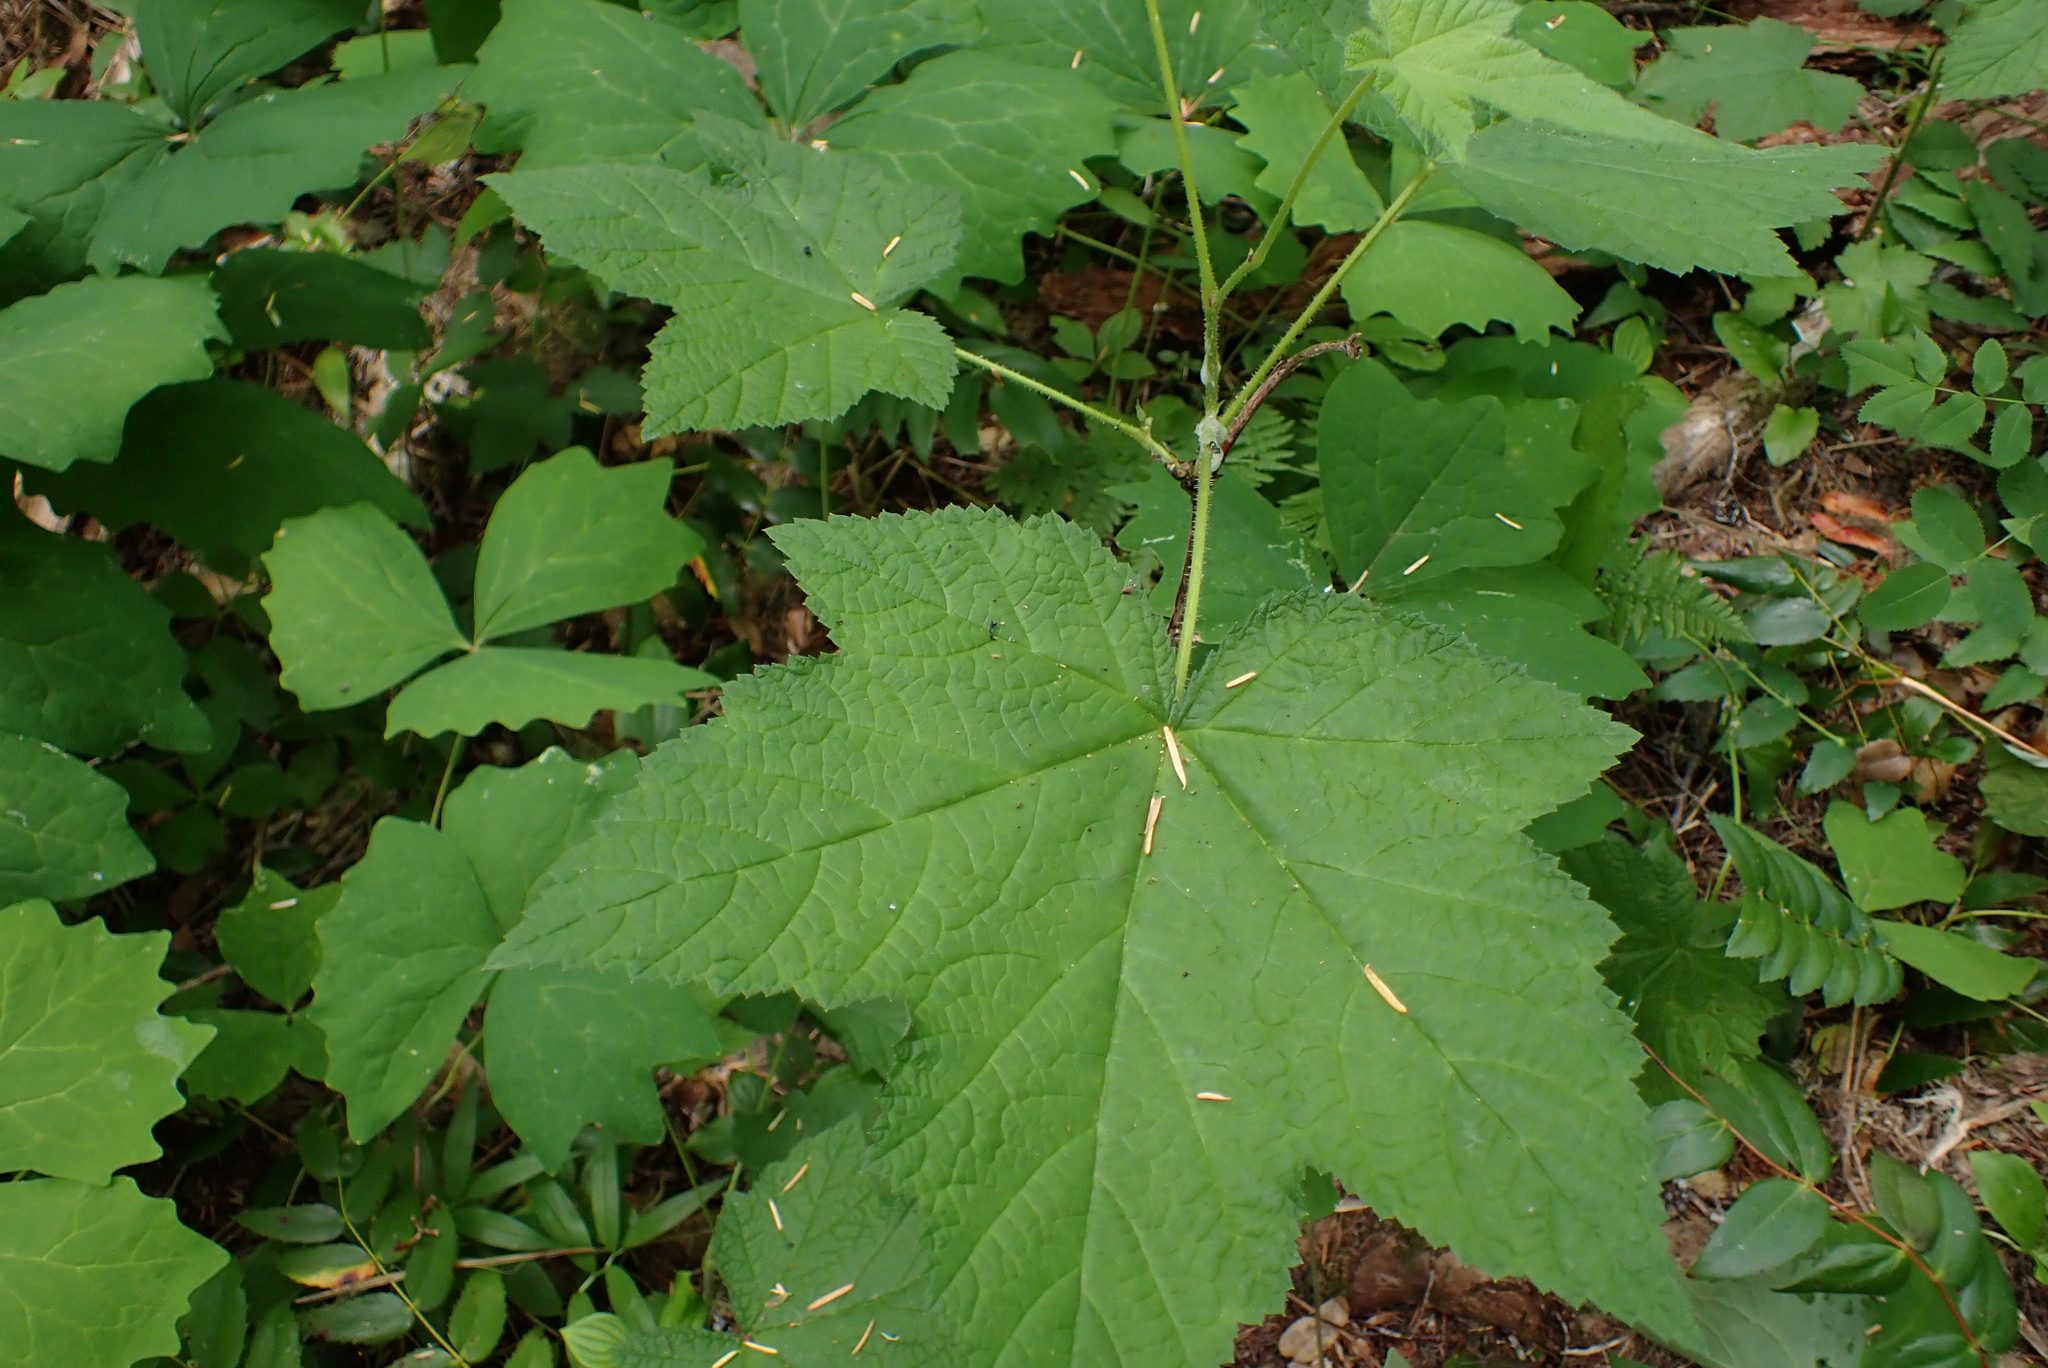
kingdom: Plantae
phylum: Tracheophyta
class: Magnoliopsida
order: Rosales
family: Rosaceae
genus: Rubus
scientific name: Rubus parviflorus
